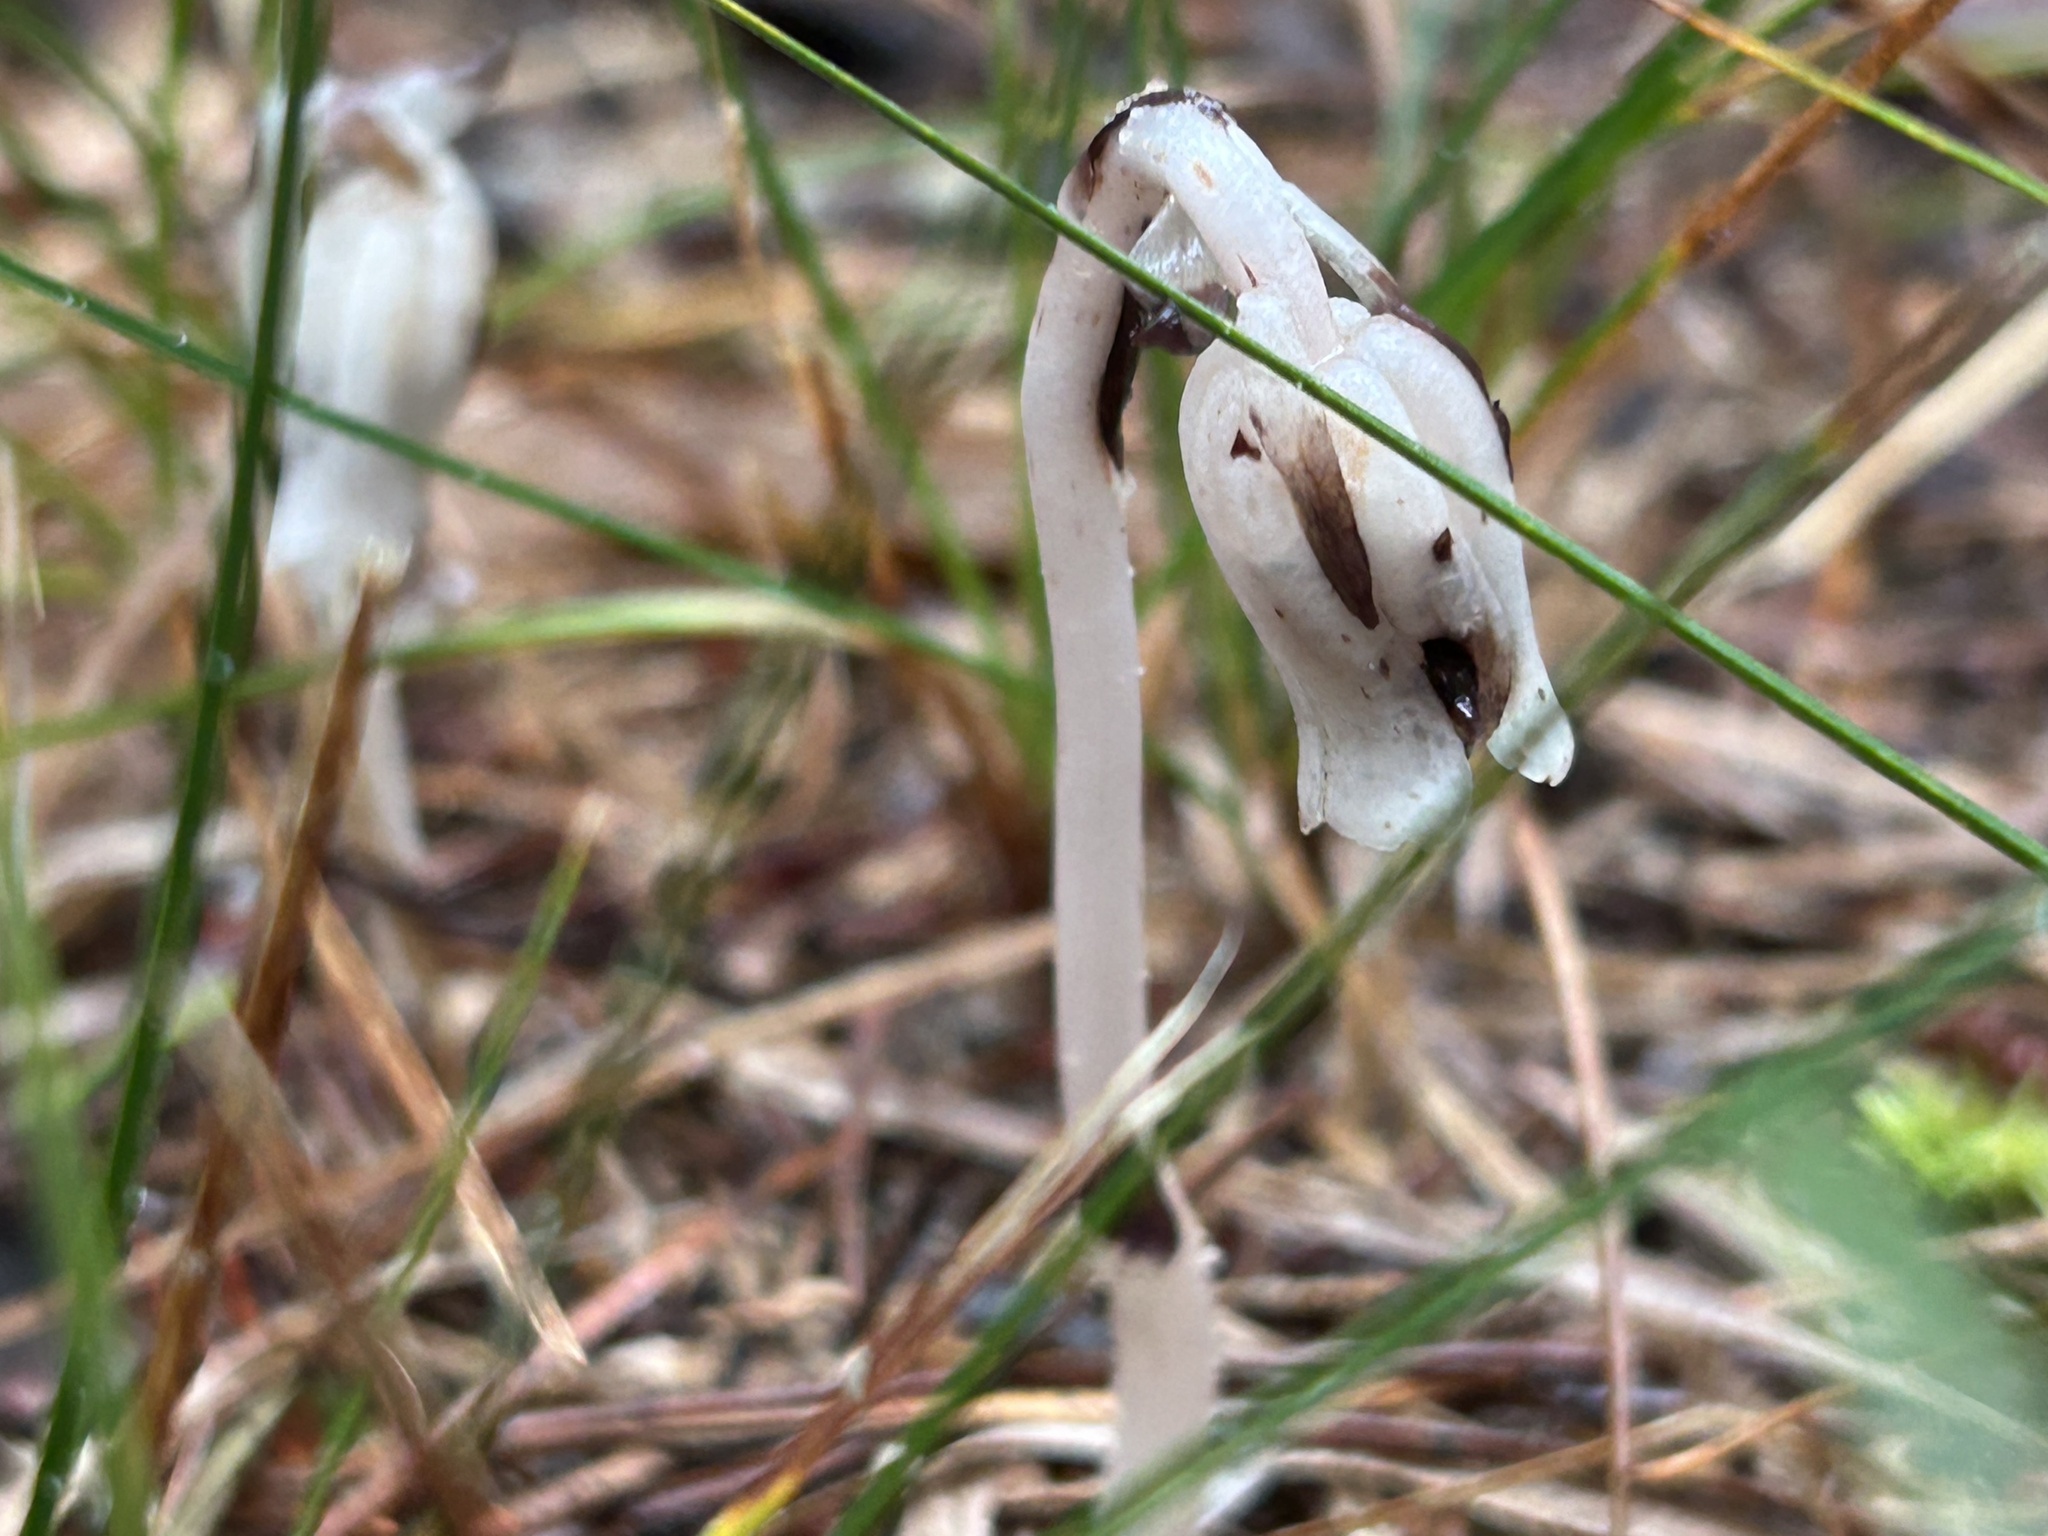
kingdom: Plantae
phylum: Tracheophyta
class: Magnoliopsida
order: Ericales
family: Ericaceae
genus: Monotropa
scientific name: Monotropa uniflora
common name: Convulsion root
